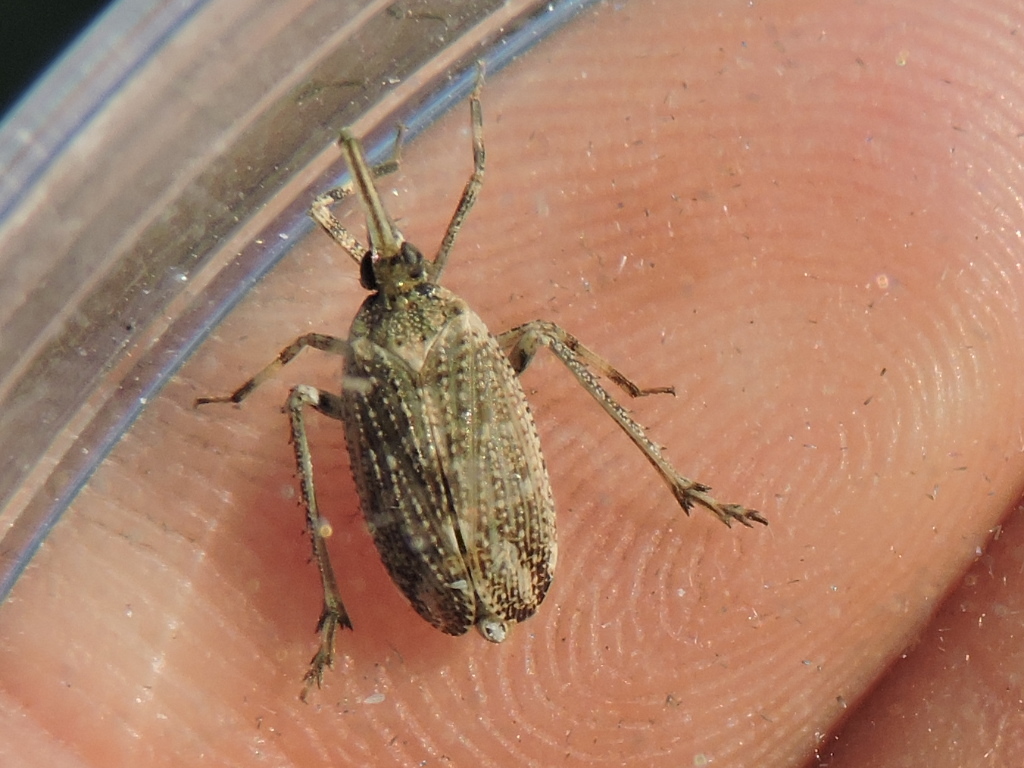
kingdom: Animalia
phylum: Arthropoda
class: Insecta
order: Hemiptera
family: Dictyopharidae
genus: Scolops
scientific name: Scolops pungens
